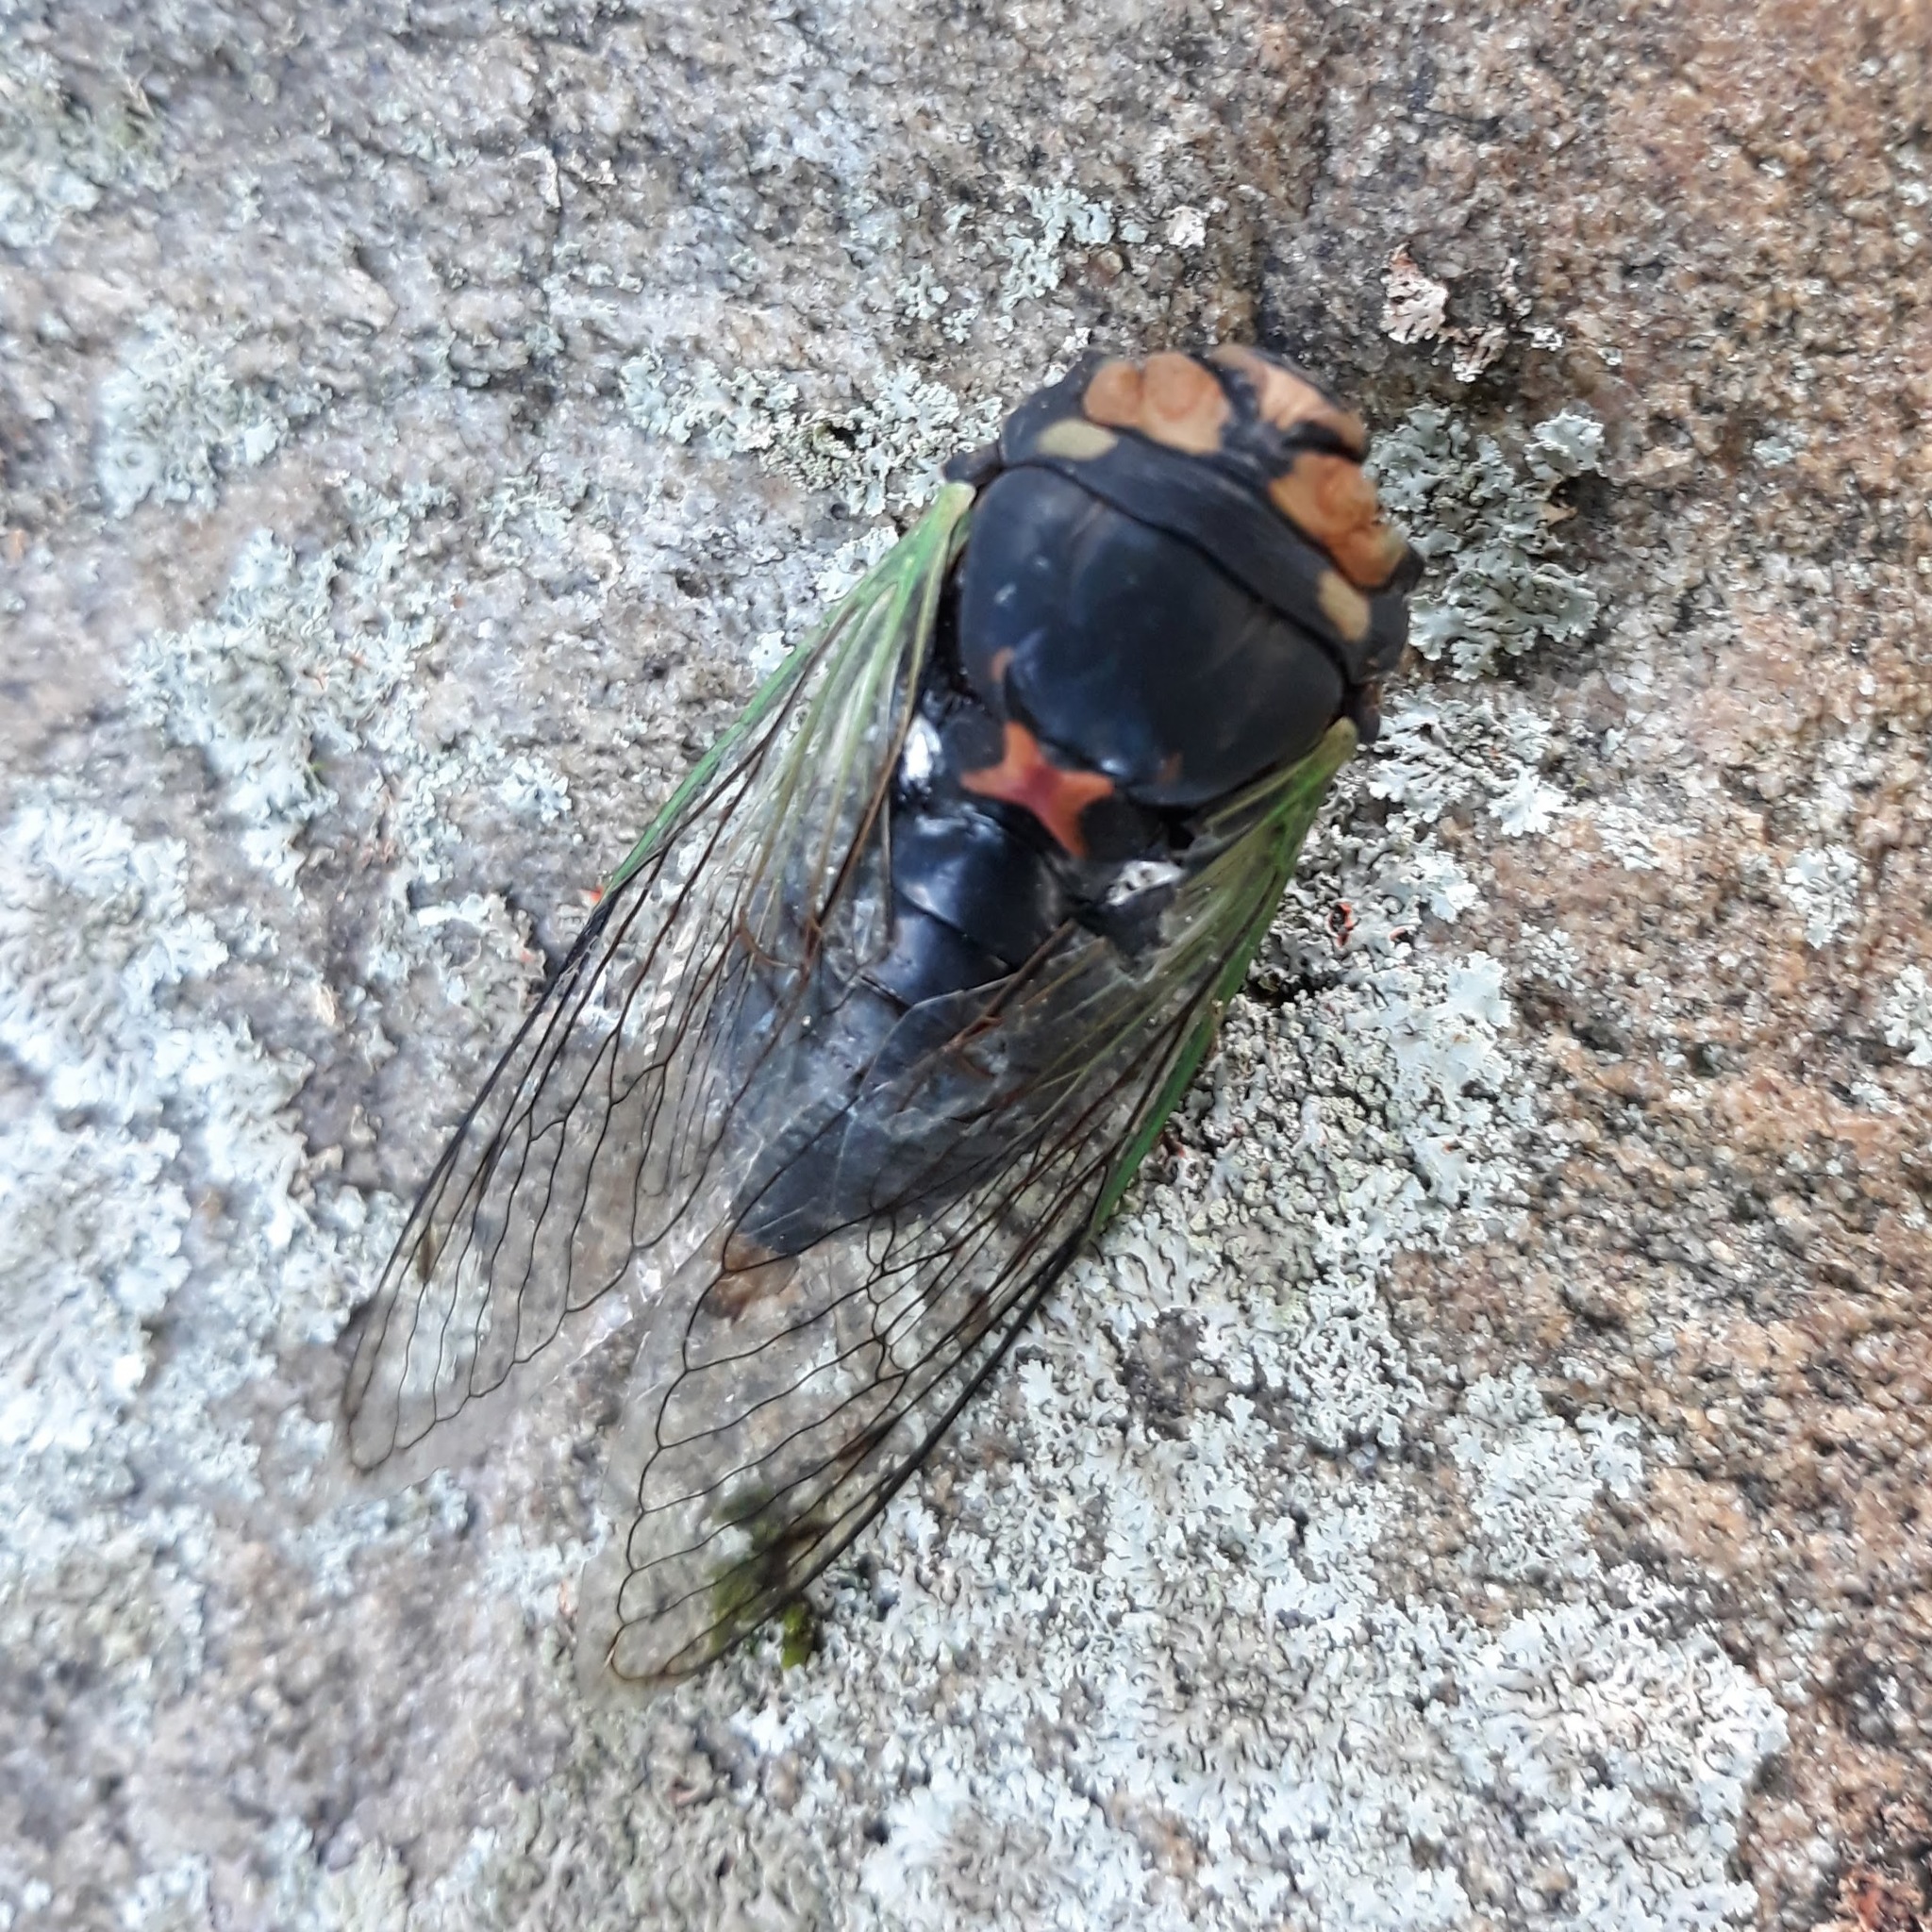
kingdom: Animalia
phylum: Arthropoda
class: Insecta
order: Hemiptera
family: Cicadidae
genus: Neotibicen
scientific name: Neotibicen tibicen
